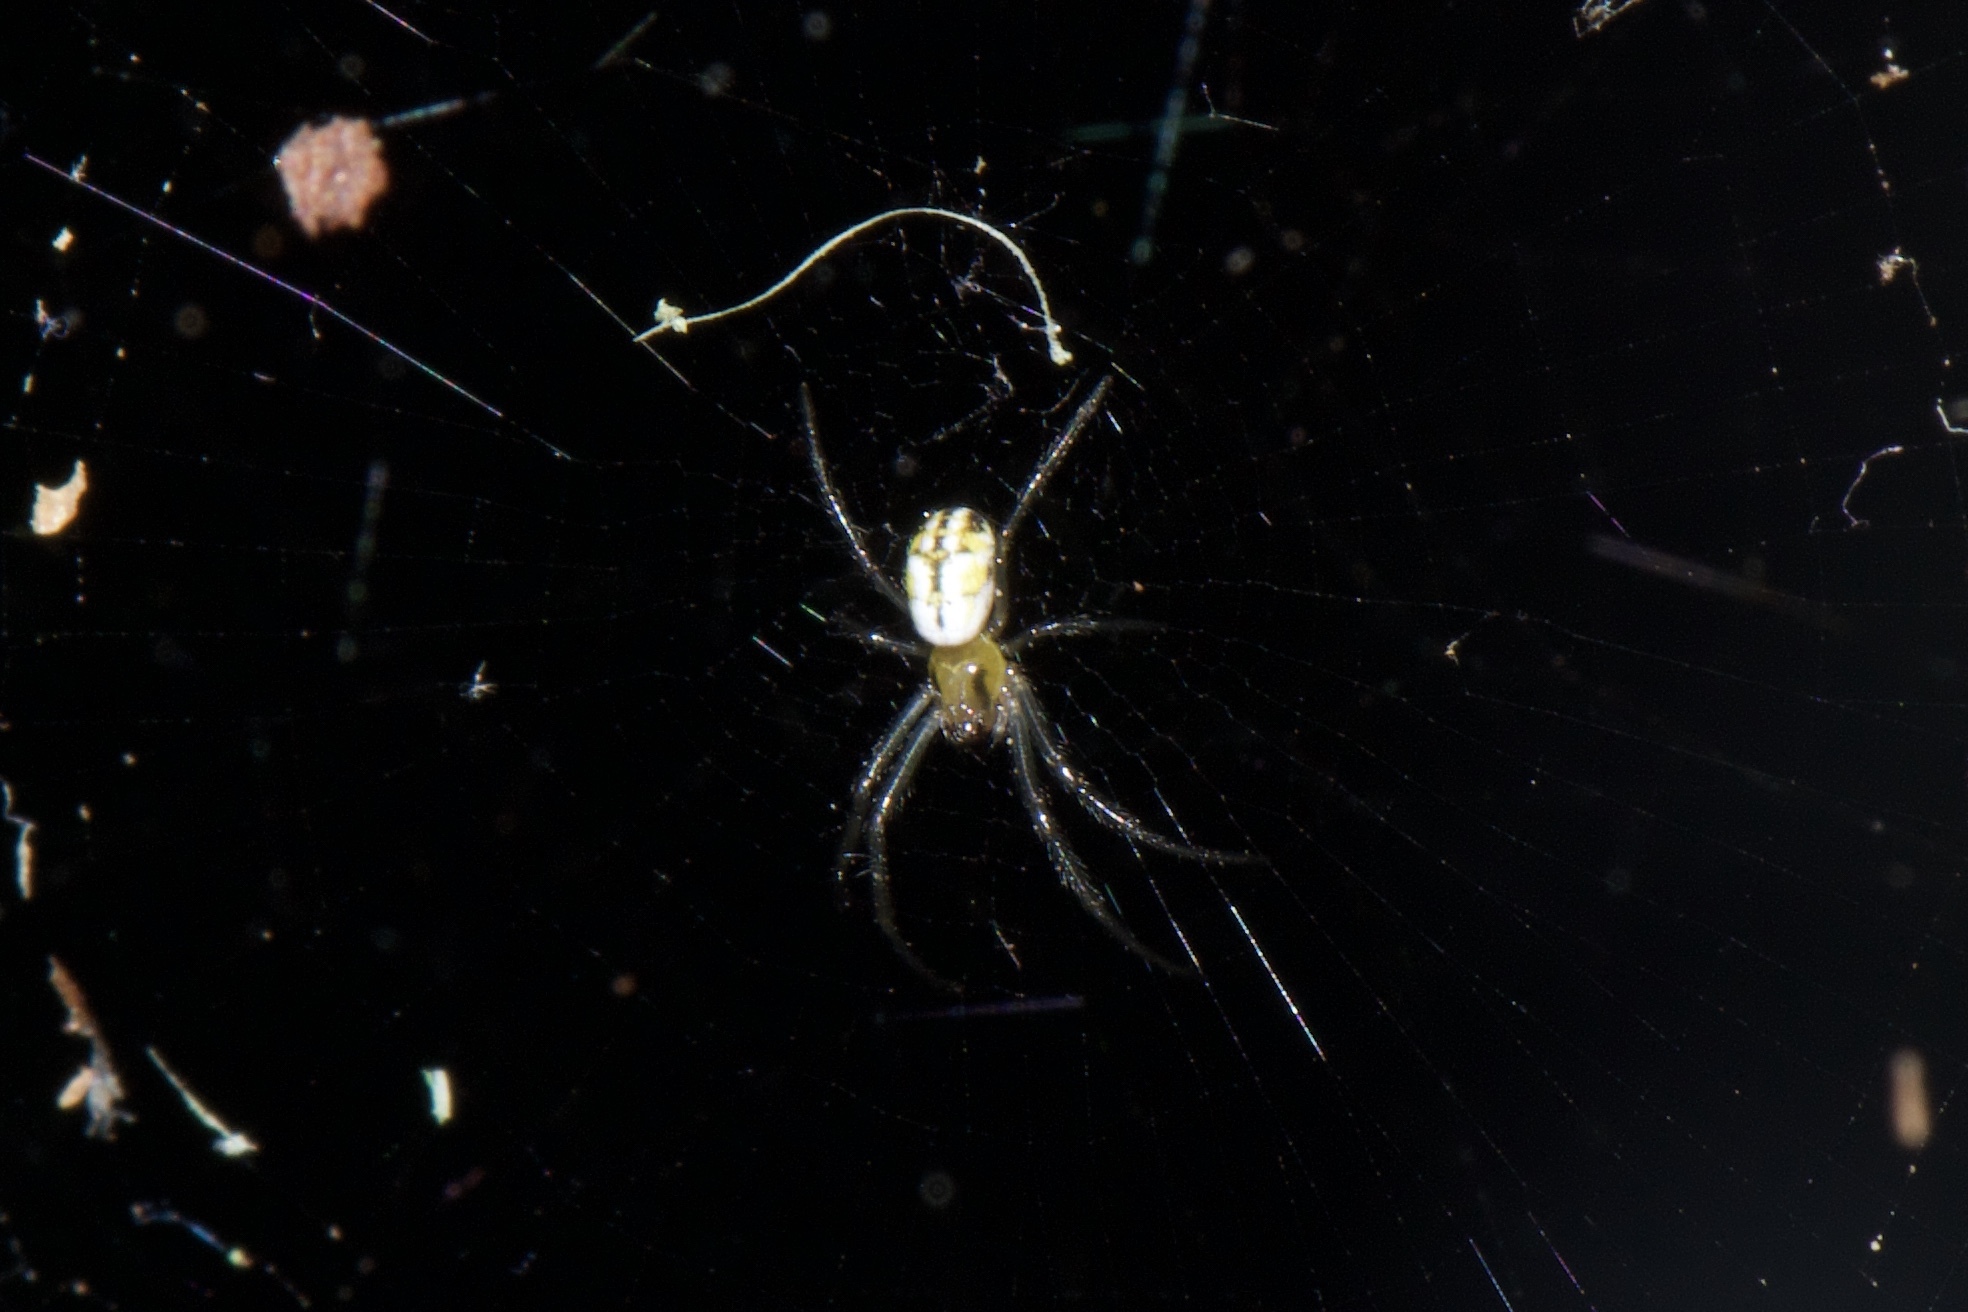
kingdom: Animalia
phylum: Arthropoda
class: Arachnida
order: Araneae
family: Araneidae
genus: Trichonephila
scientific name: Trichonephila clavipes
